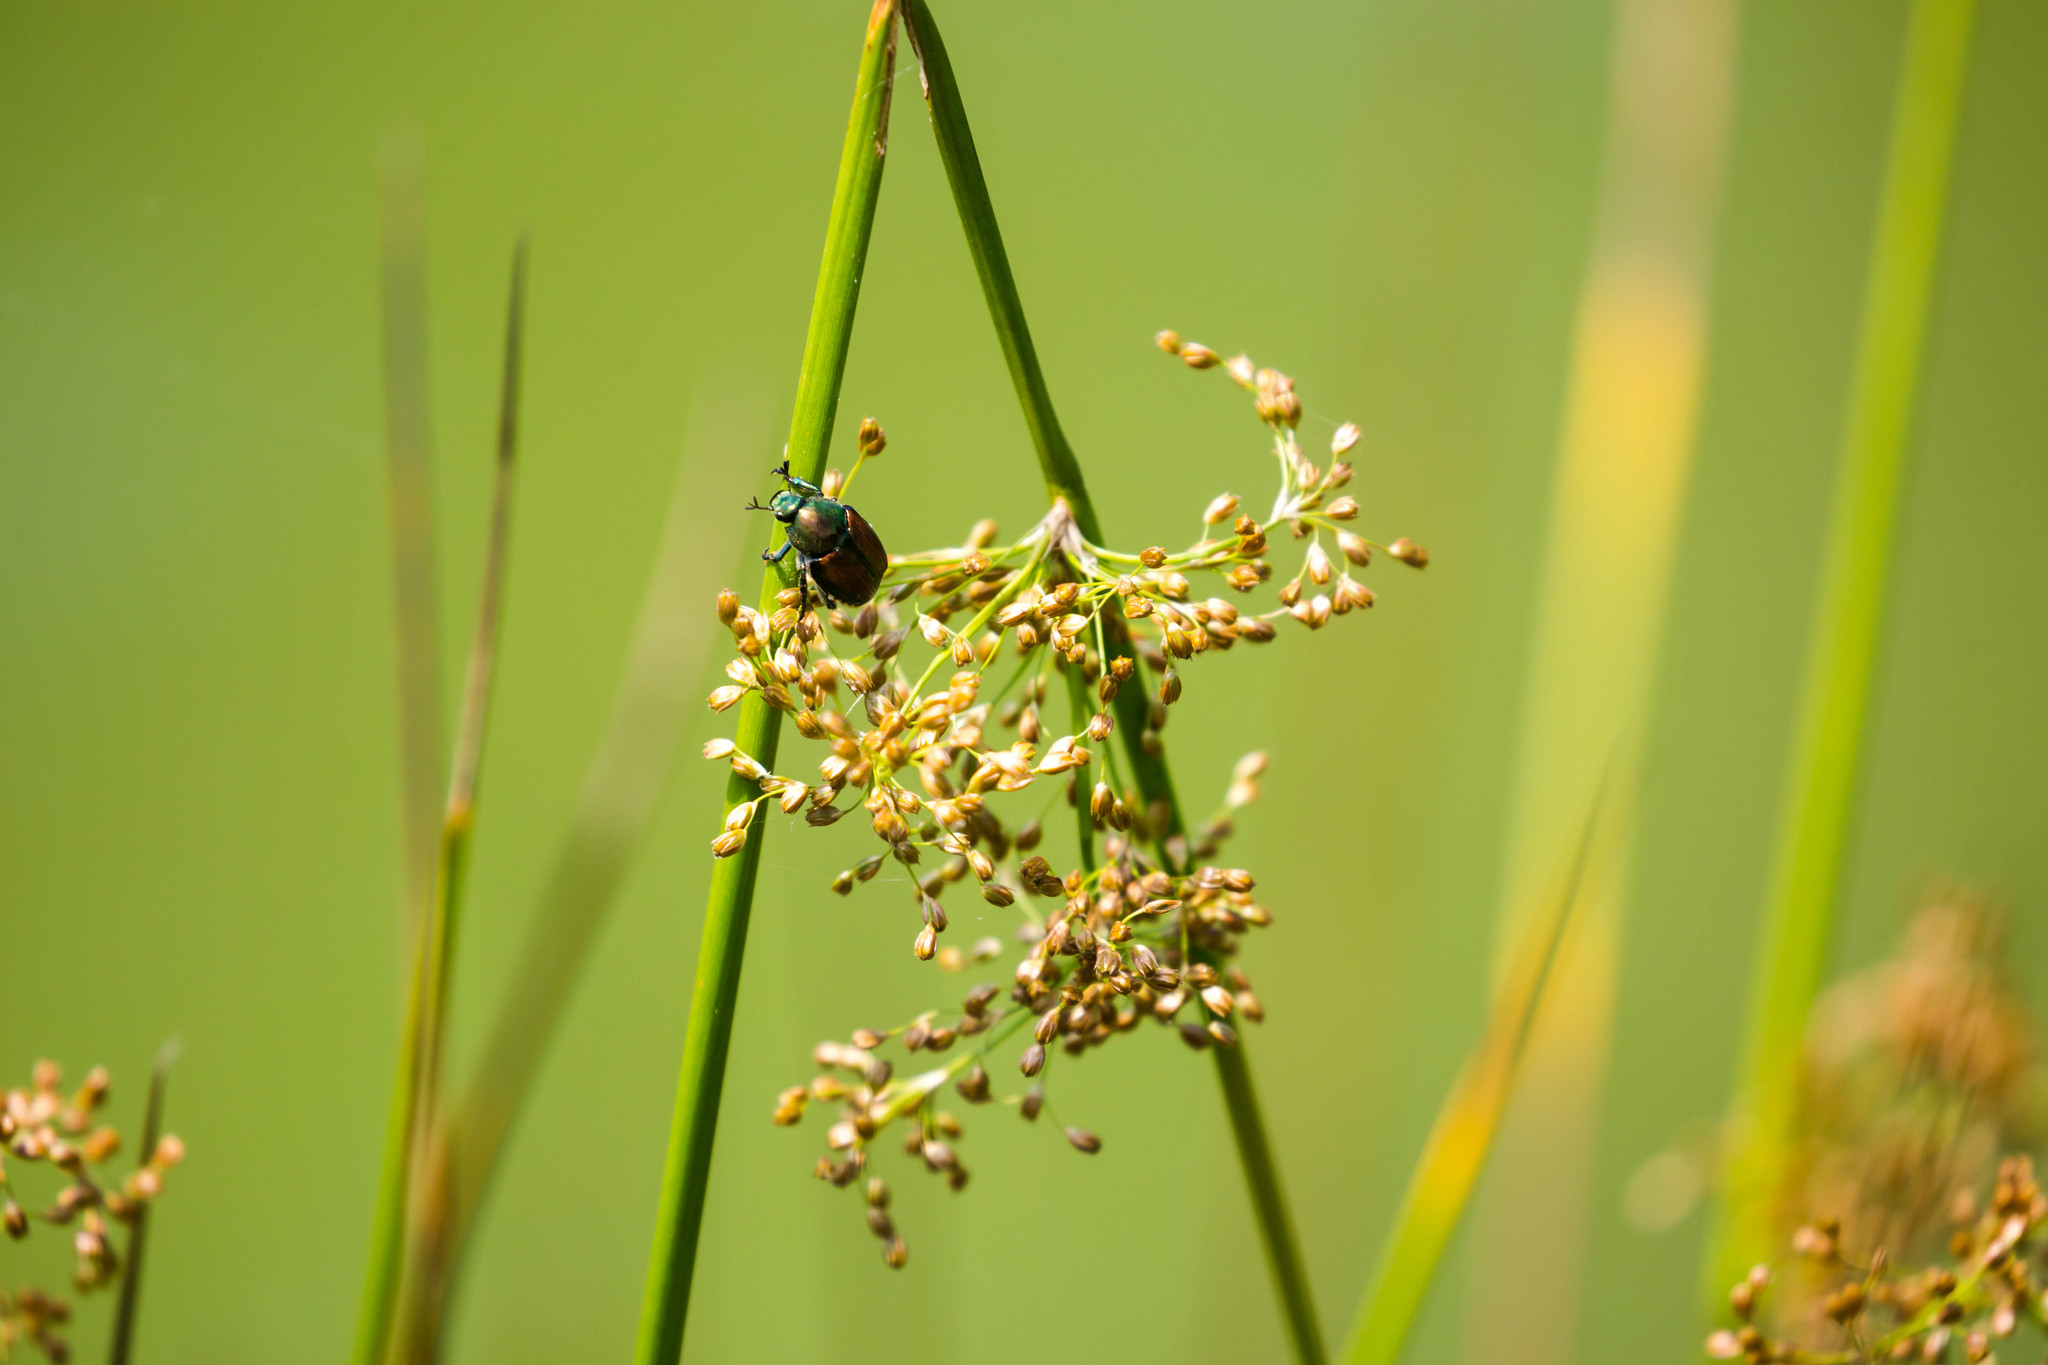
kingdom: Animalia
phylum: Arthropoda
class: Insecta
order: Coleoptera
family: Scarabaeidae
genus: Popillia
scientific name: Popillia japonica
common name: Japanese beetle
